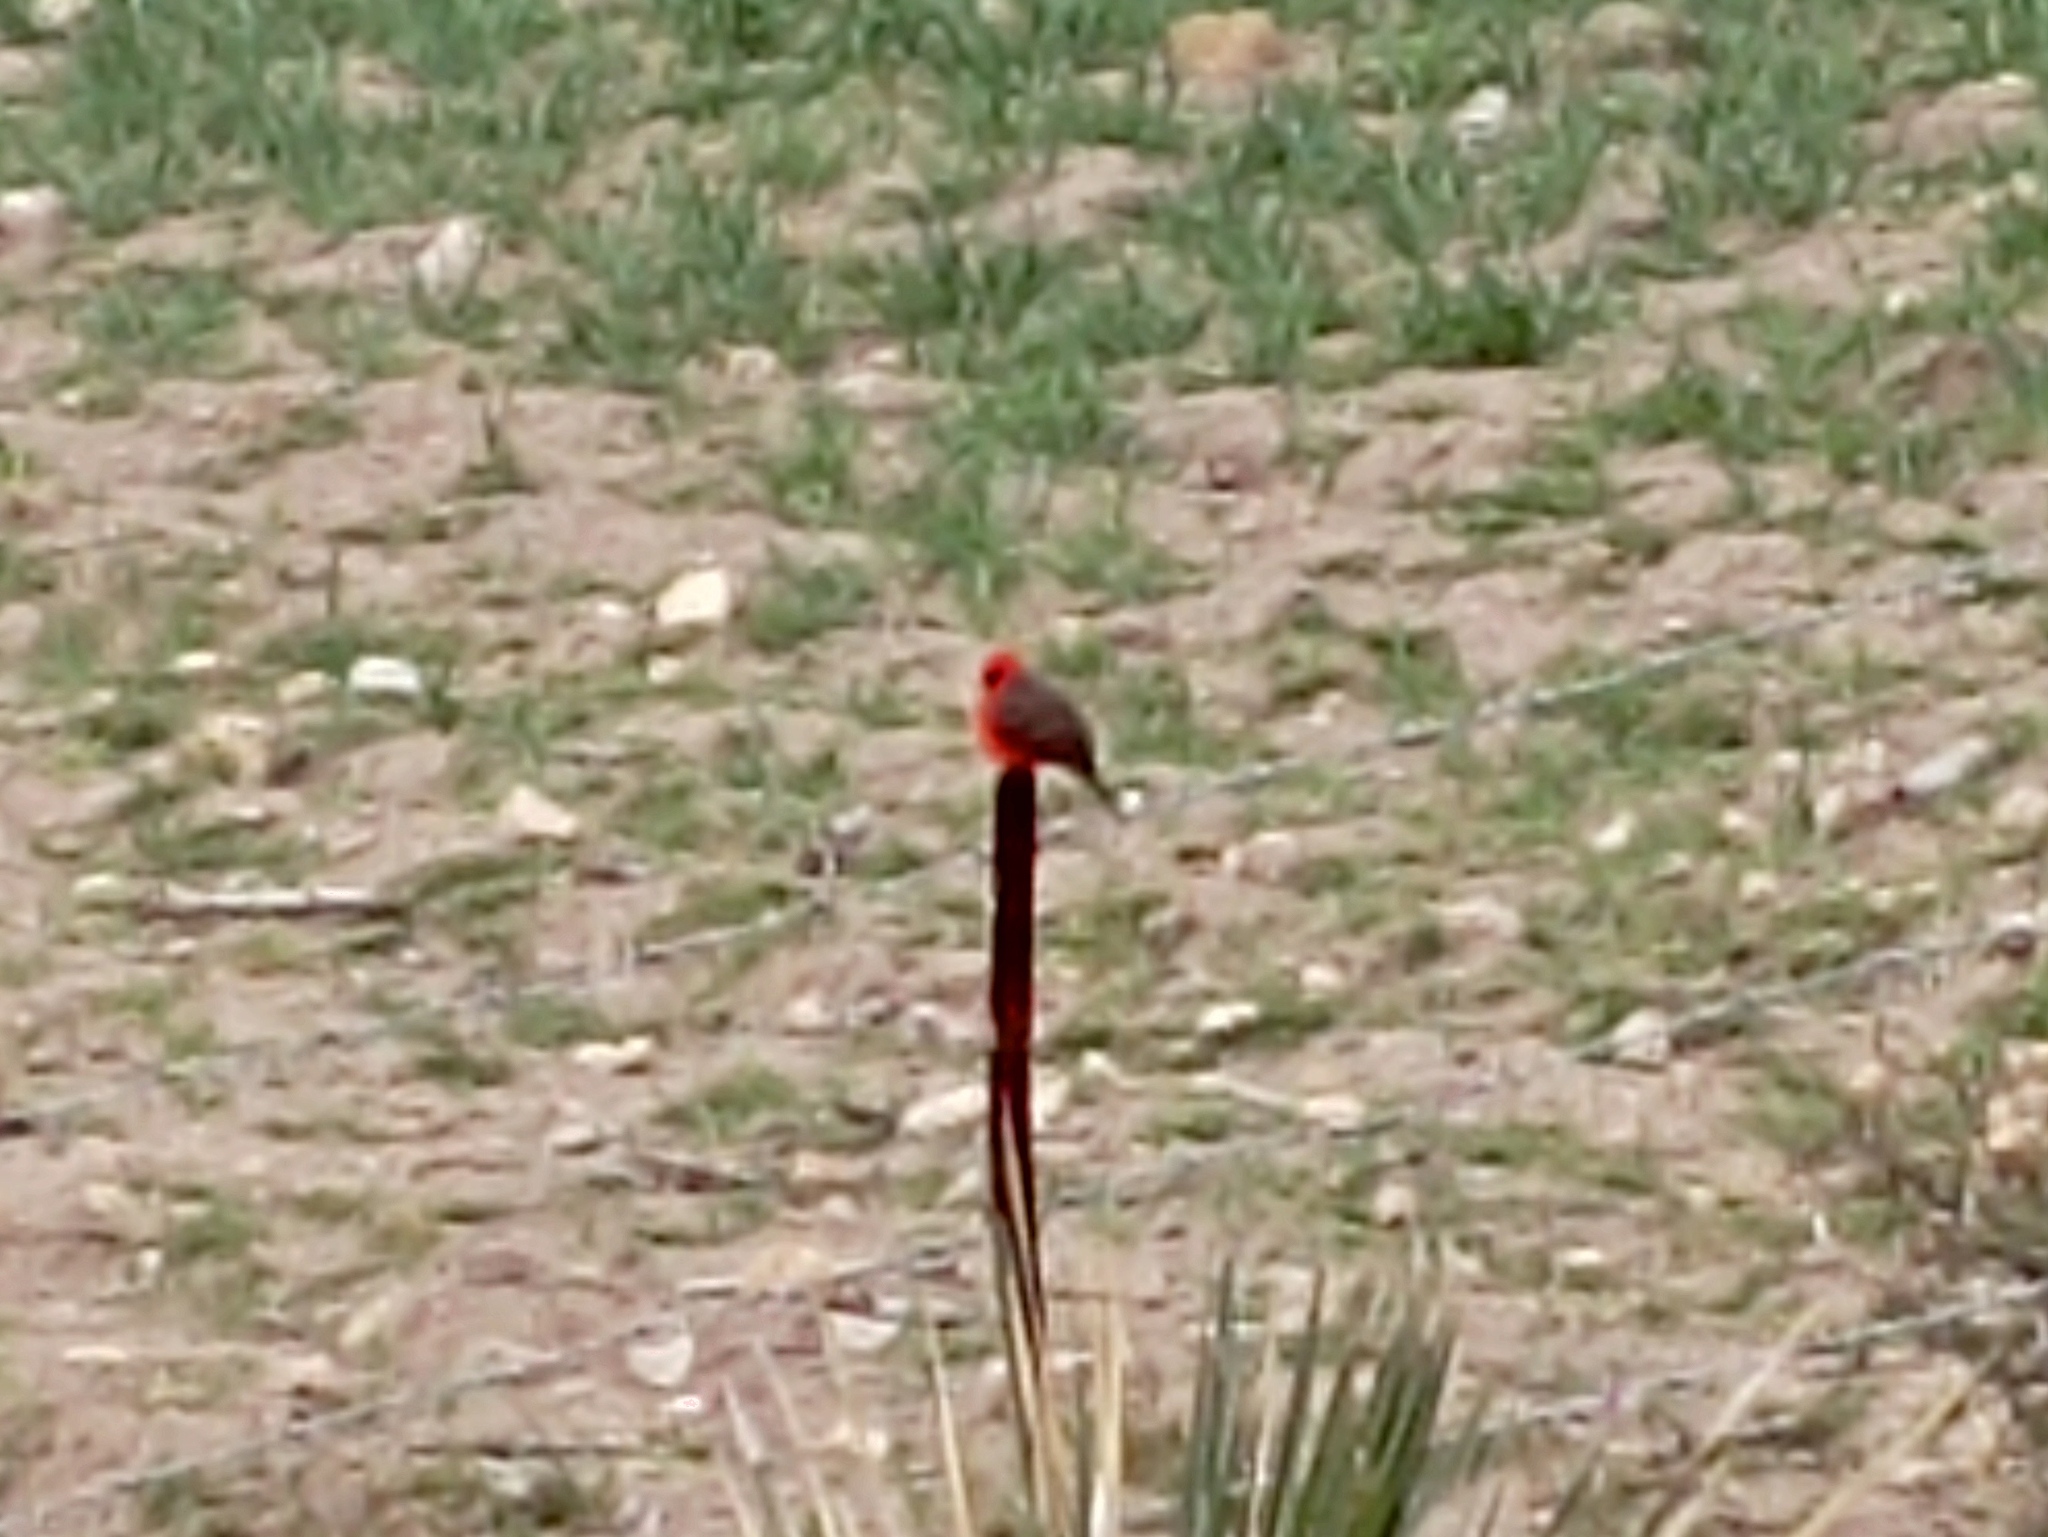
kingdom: Animalia
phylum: Chordata
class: Aves
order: Passeriformes
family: Tyrannidae
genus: Pyrocephalus
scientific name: Pyrocephalus rubinus
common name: Vermilion flycatcher
